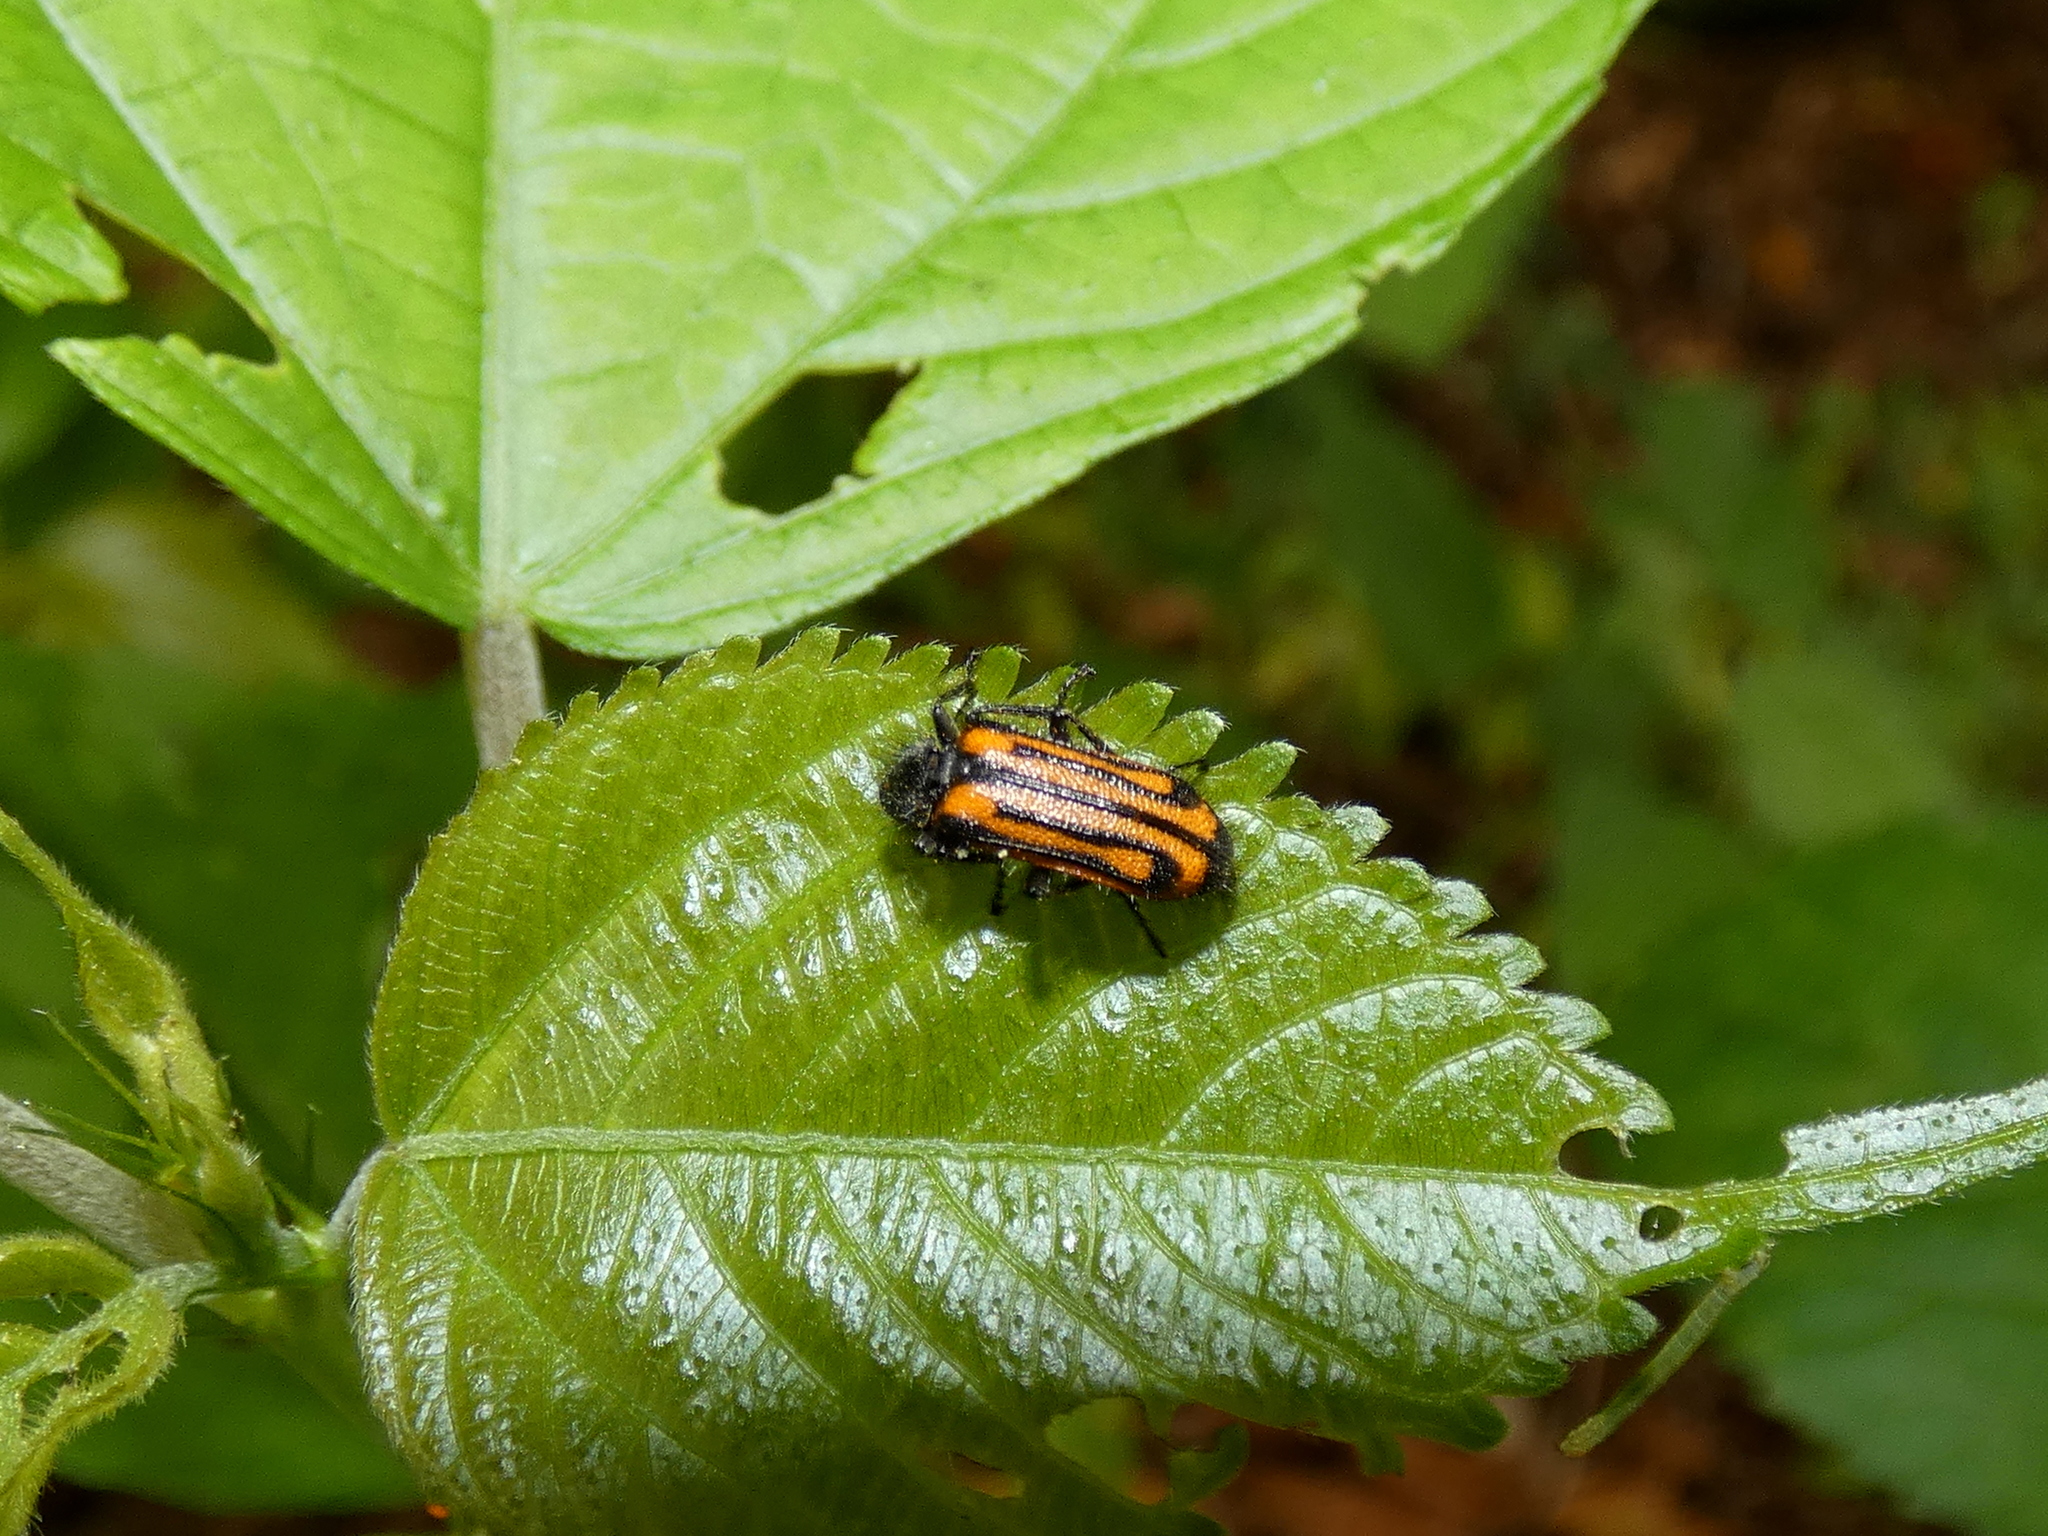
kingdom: Animalia
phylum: Arthropoda
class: Insecta
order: Coleoptera
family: Melyridae
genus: Astylus
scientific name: Astylus
